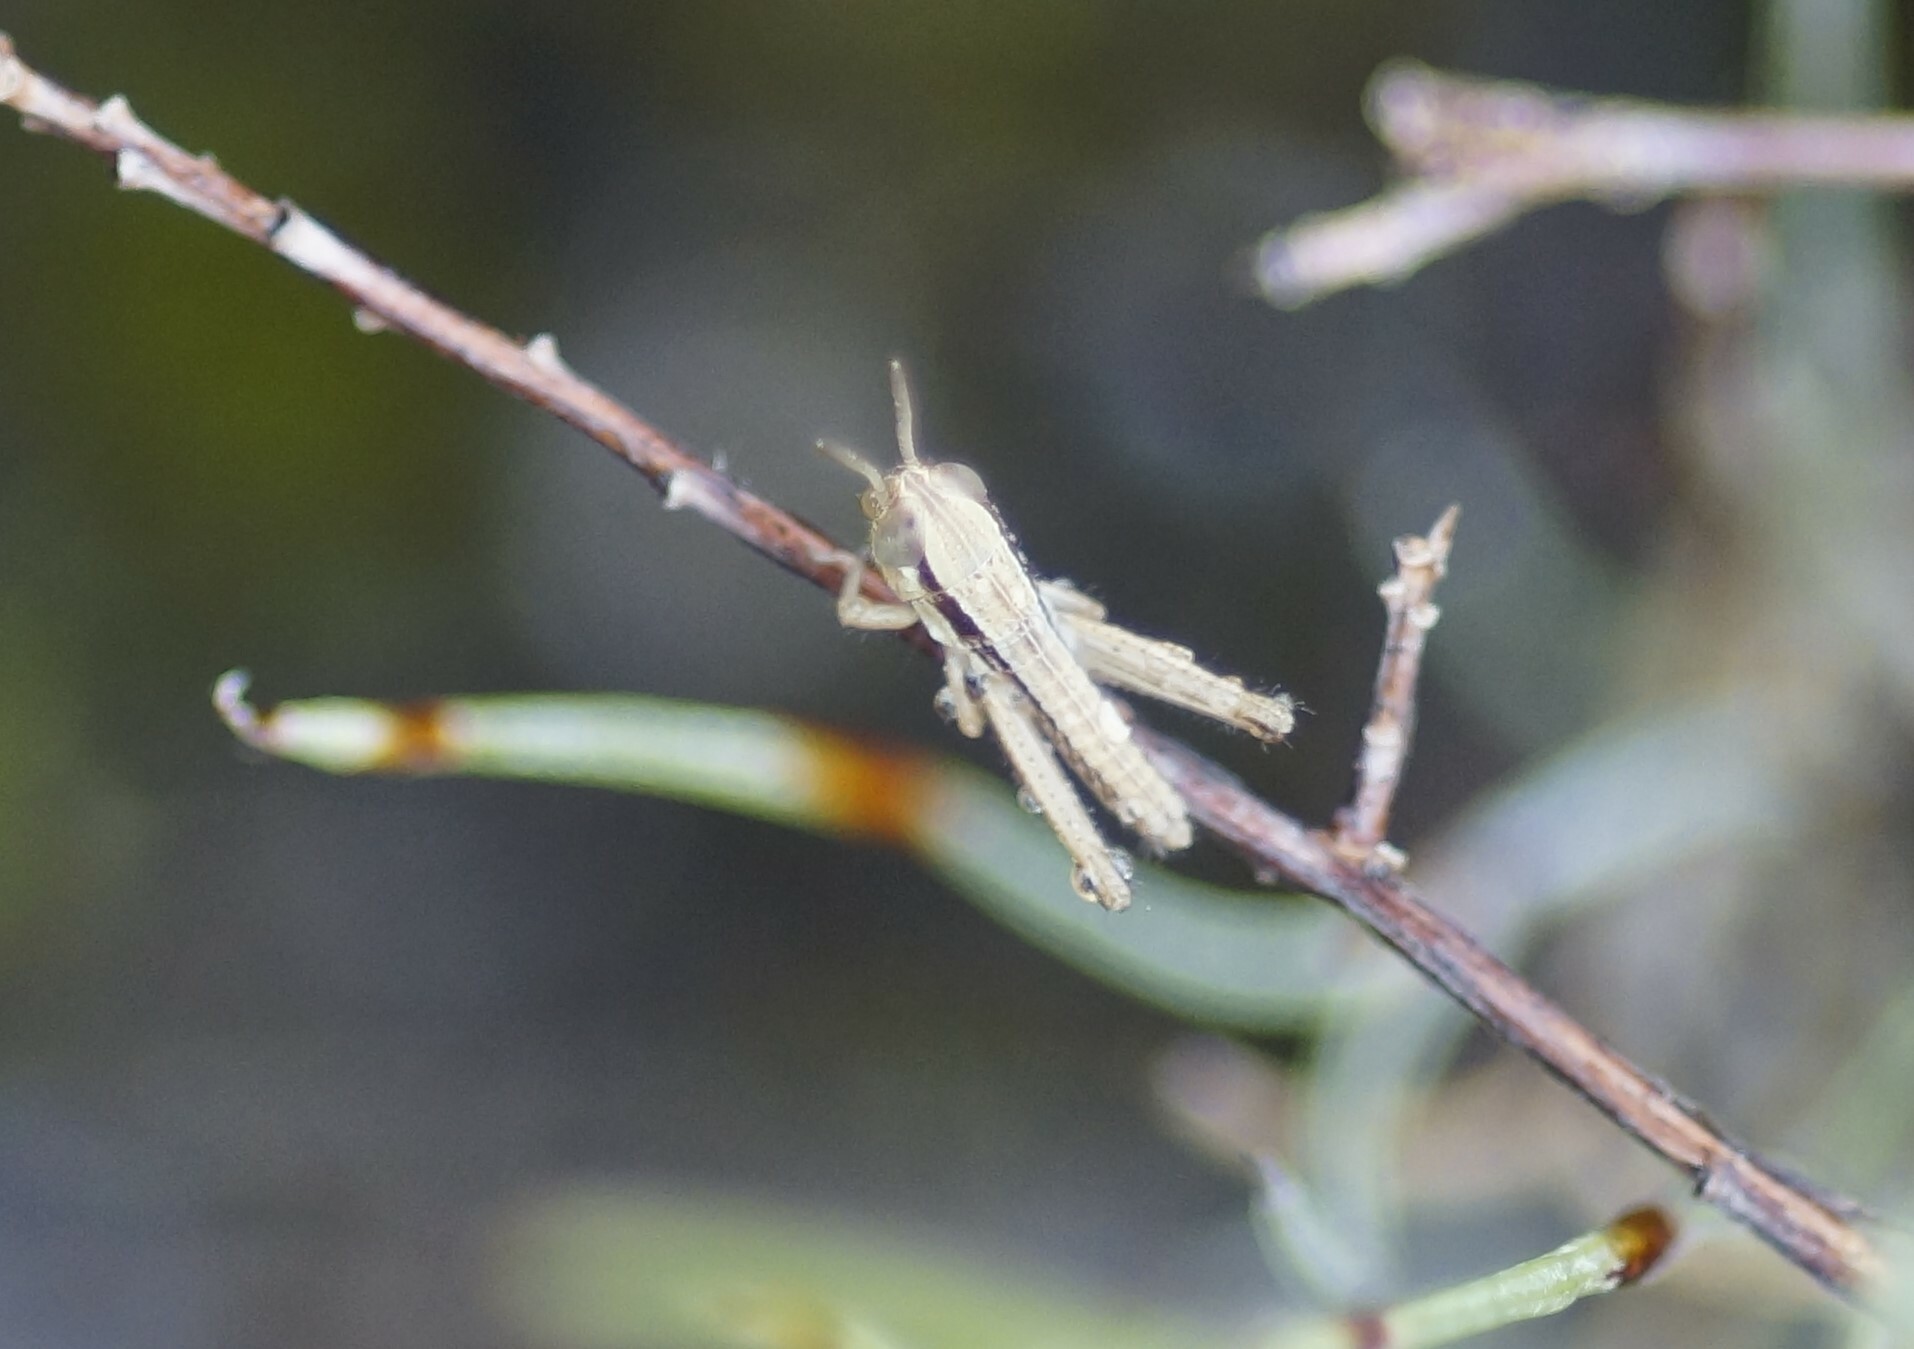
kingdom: Animalia
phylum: Arthropoda
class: Insecta
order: Orthoptera
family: Acrididae
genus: Phaulacridium
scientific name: Phaulacridium vittatum
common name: Wingless grasshopper
